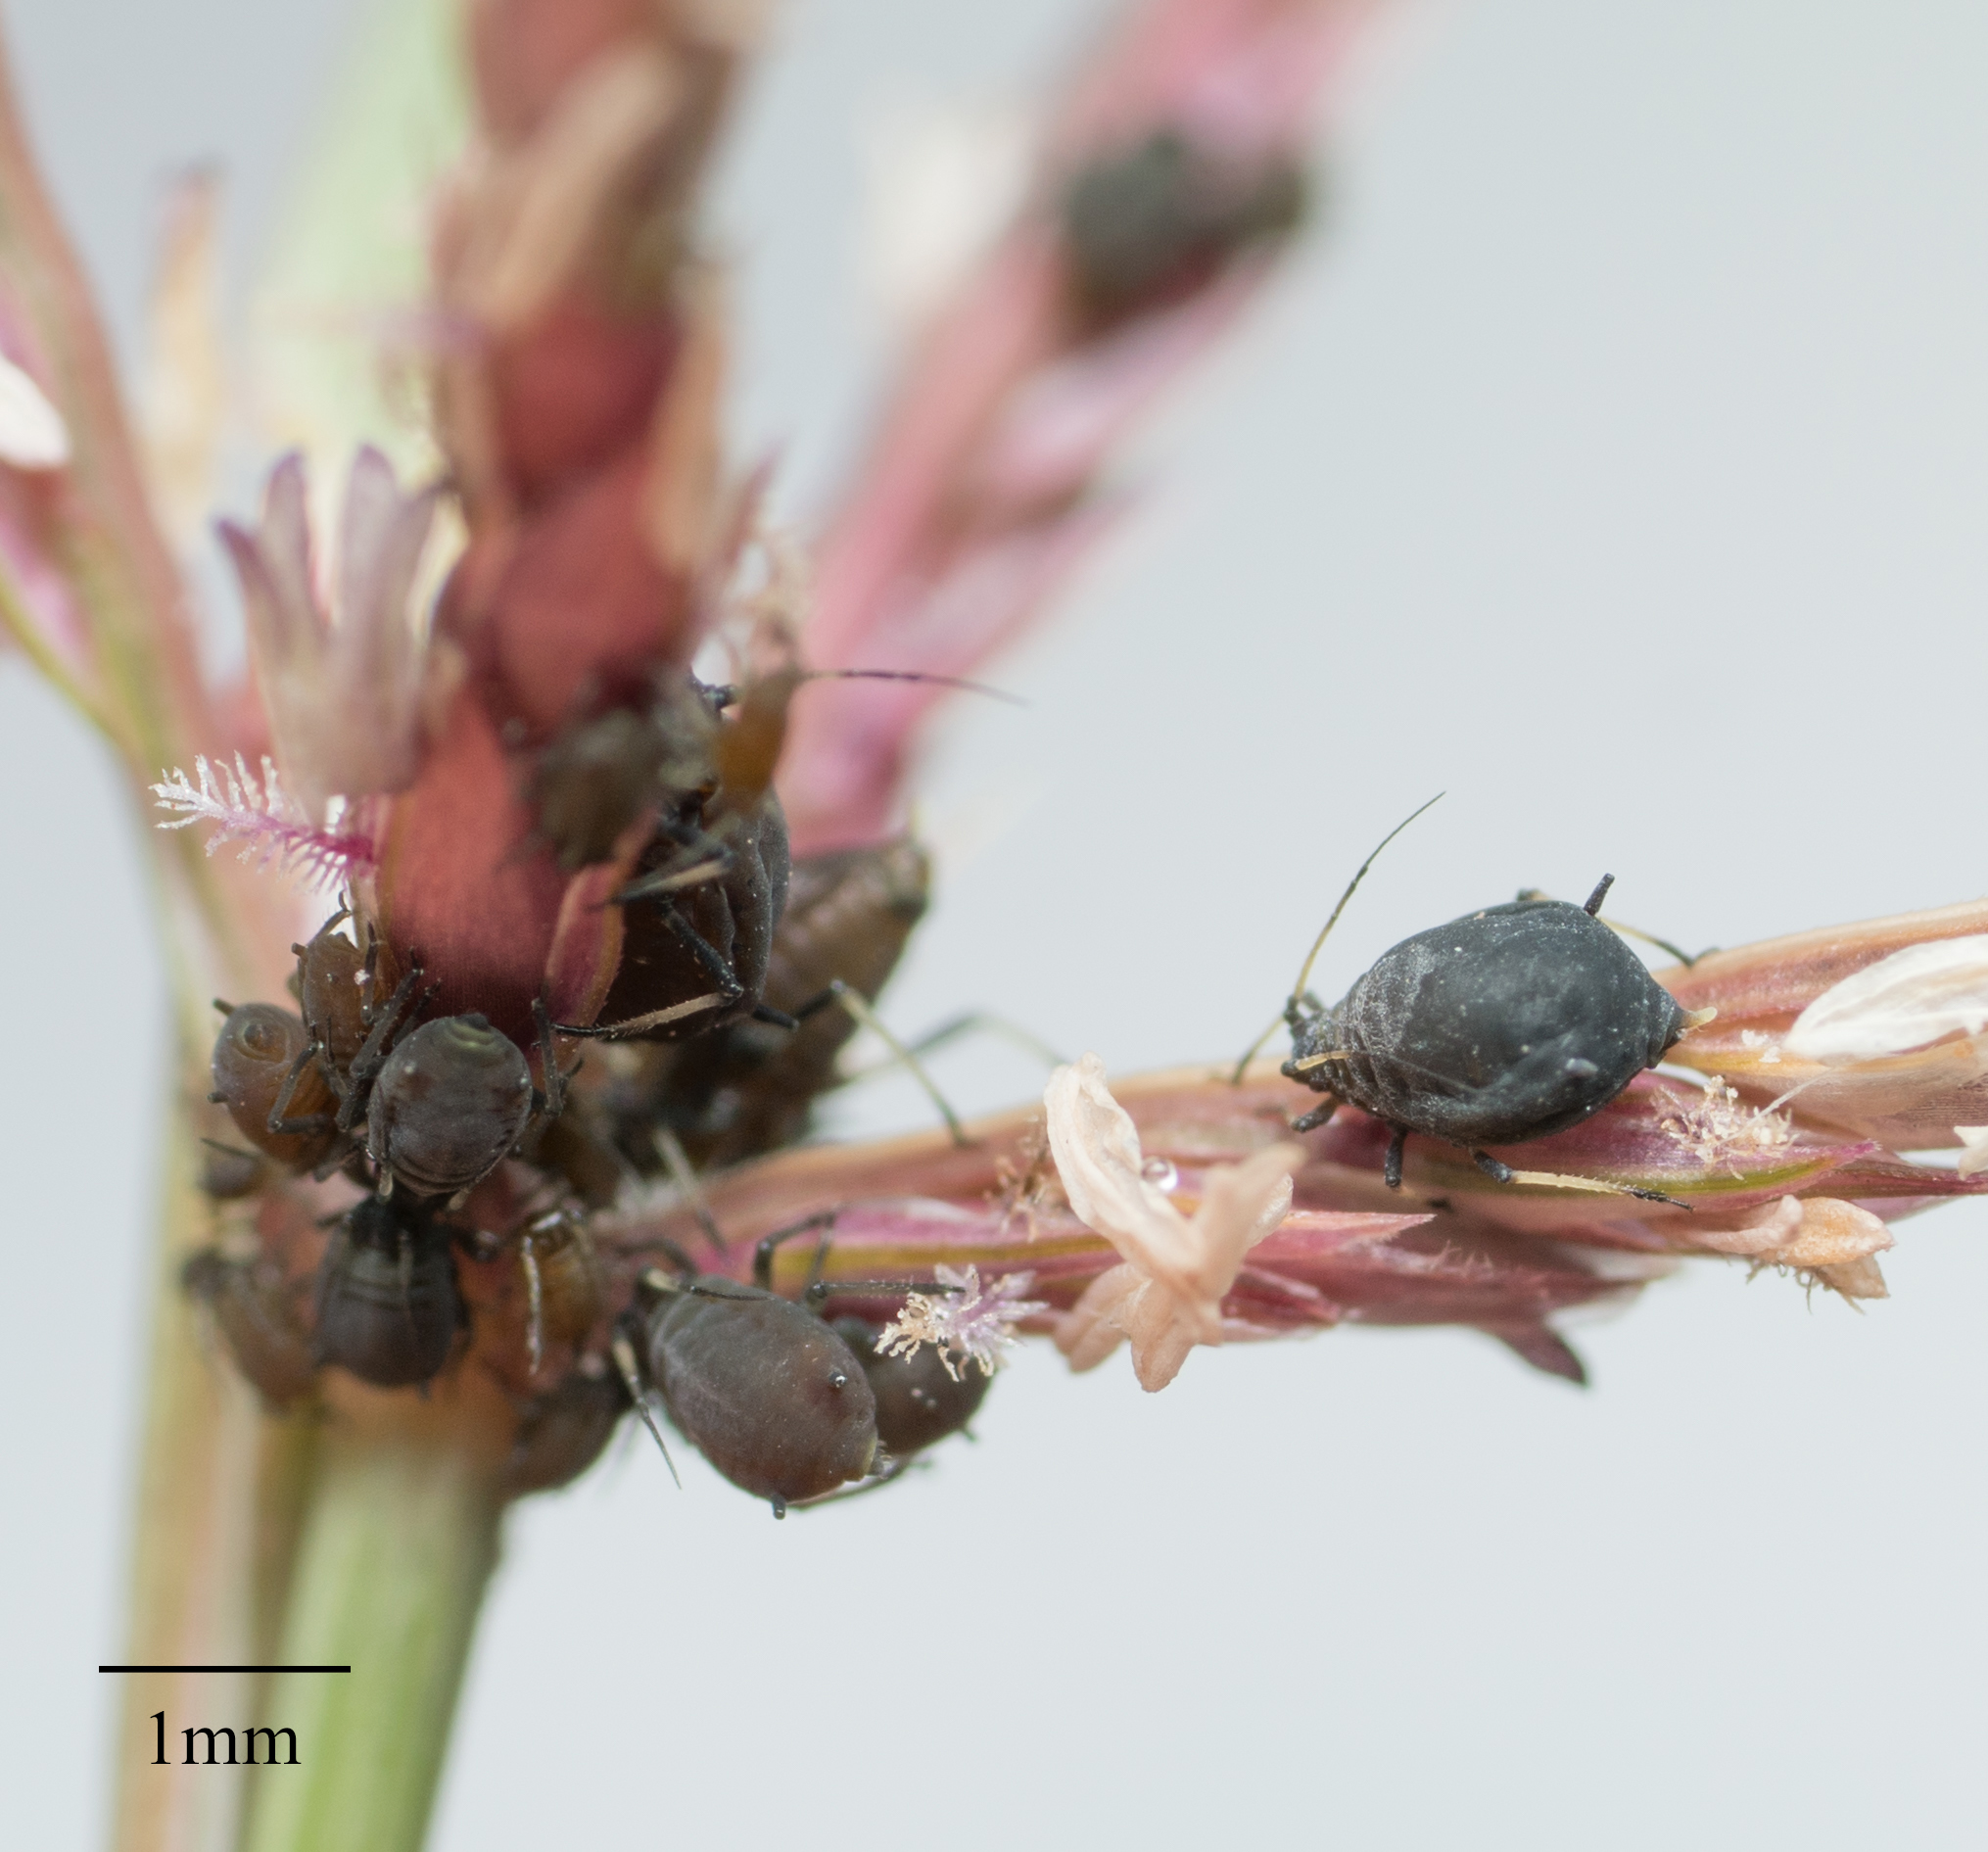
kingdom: Animalia
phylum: Arthropoda
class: Insecta
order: Hemiptera
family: Aphididae
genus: Hysteroneura
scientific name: Hysteroneura setariae
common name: Rusty plum aphid
